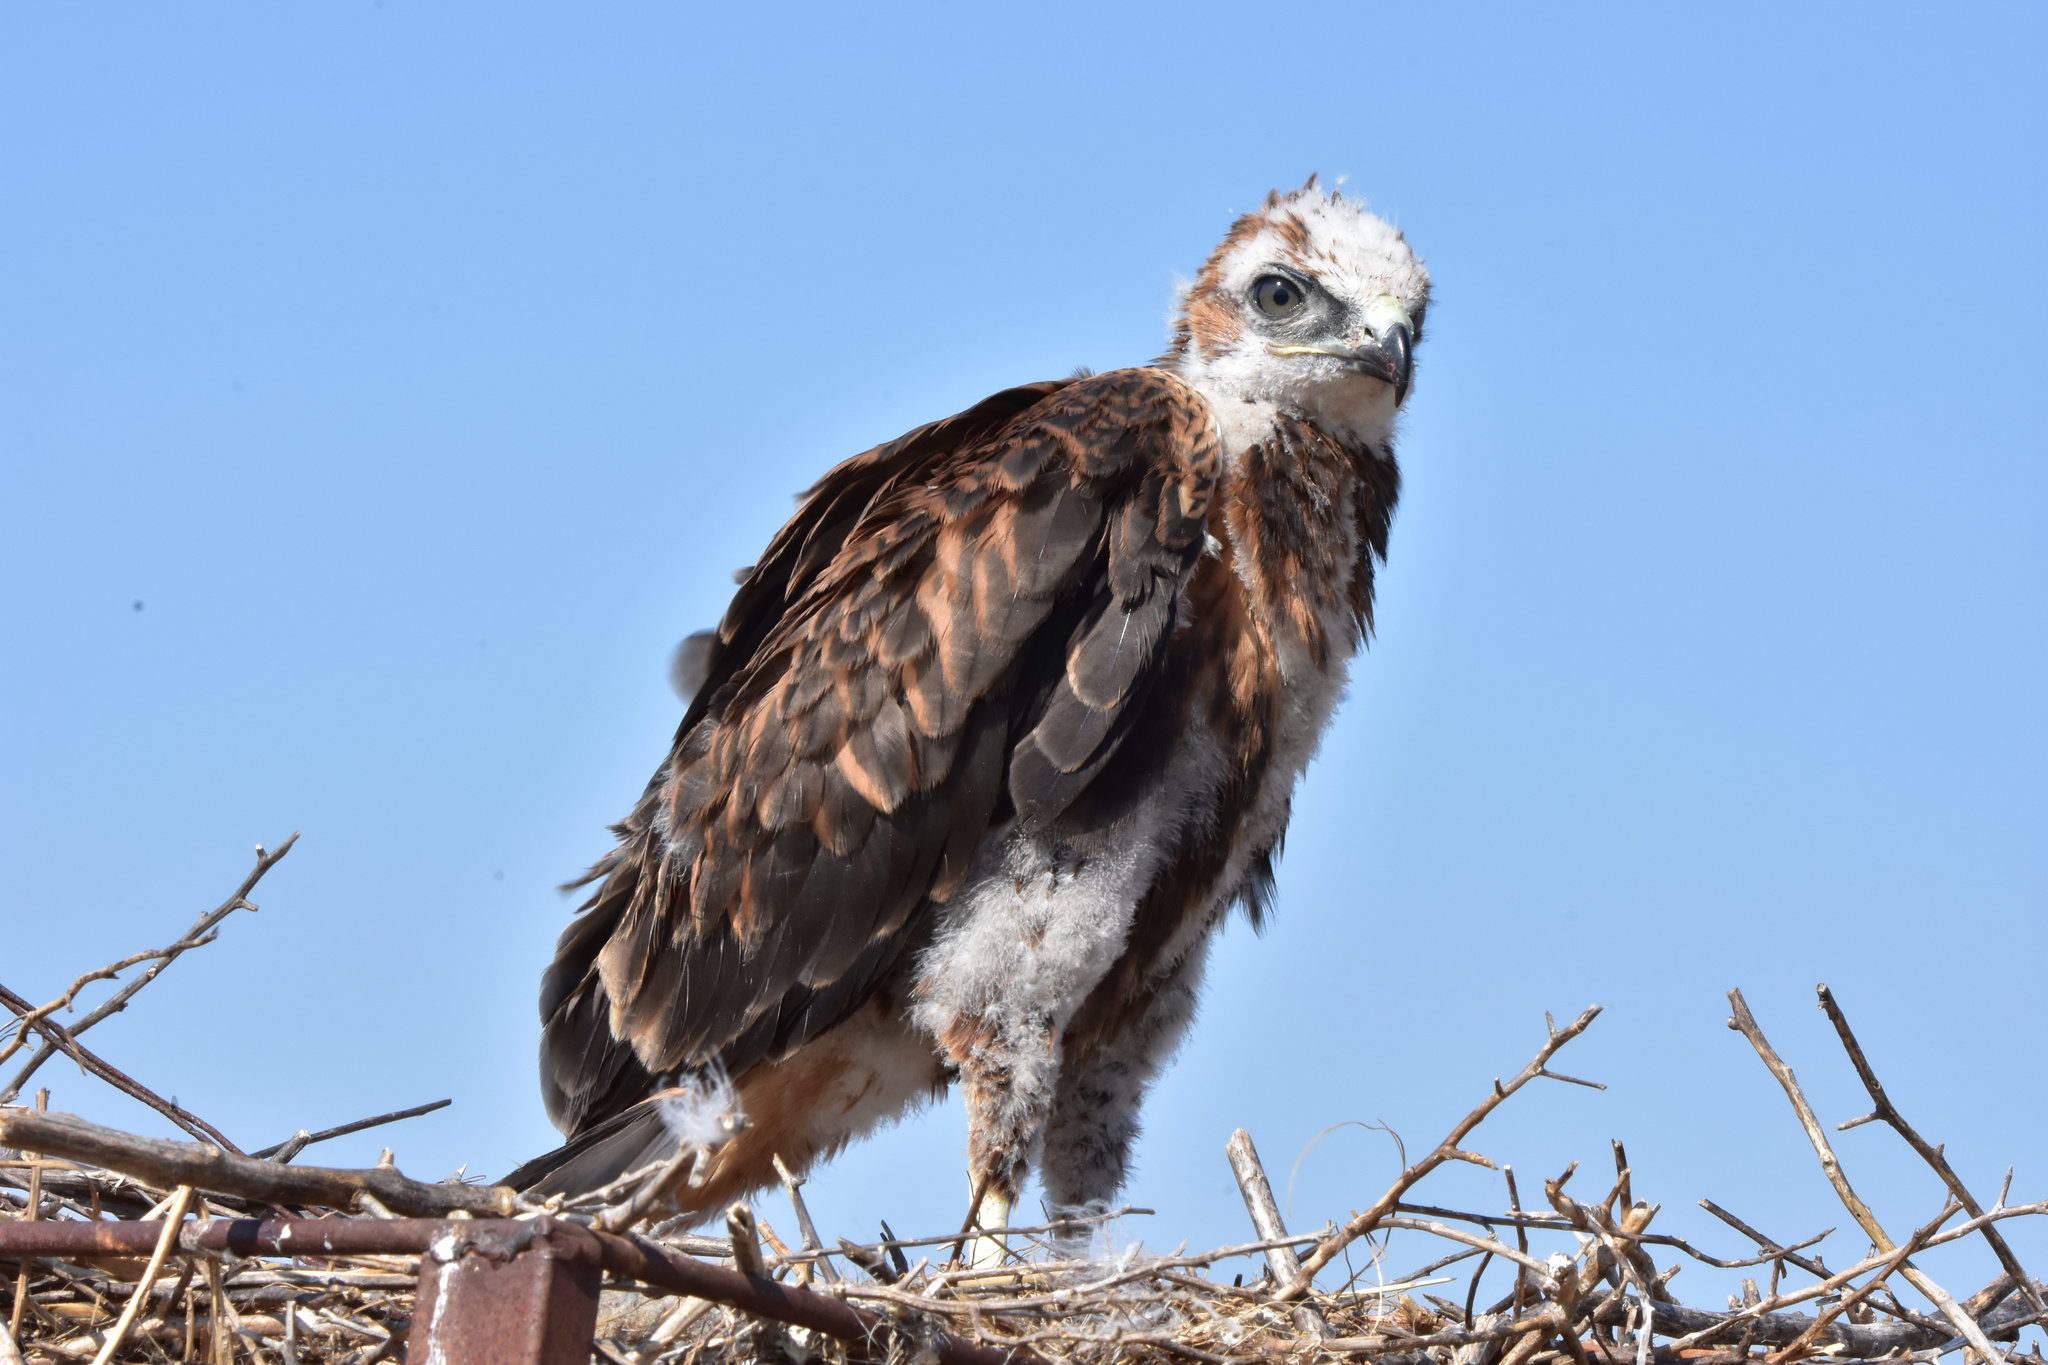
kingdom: Animalia
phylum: Chordata
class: Aves
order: Accipitriformes
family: Accipitridae
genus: Buteo
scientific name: Buteo rufinus
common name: Long-legged buzzard
